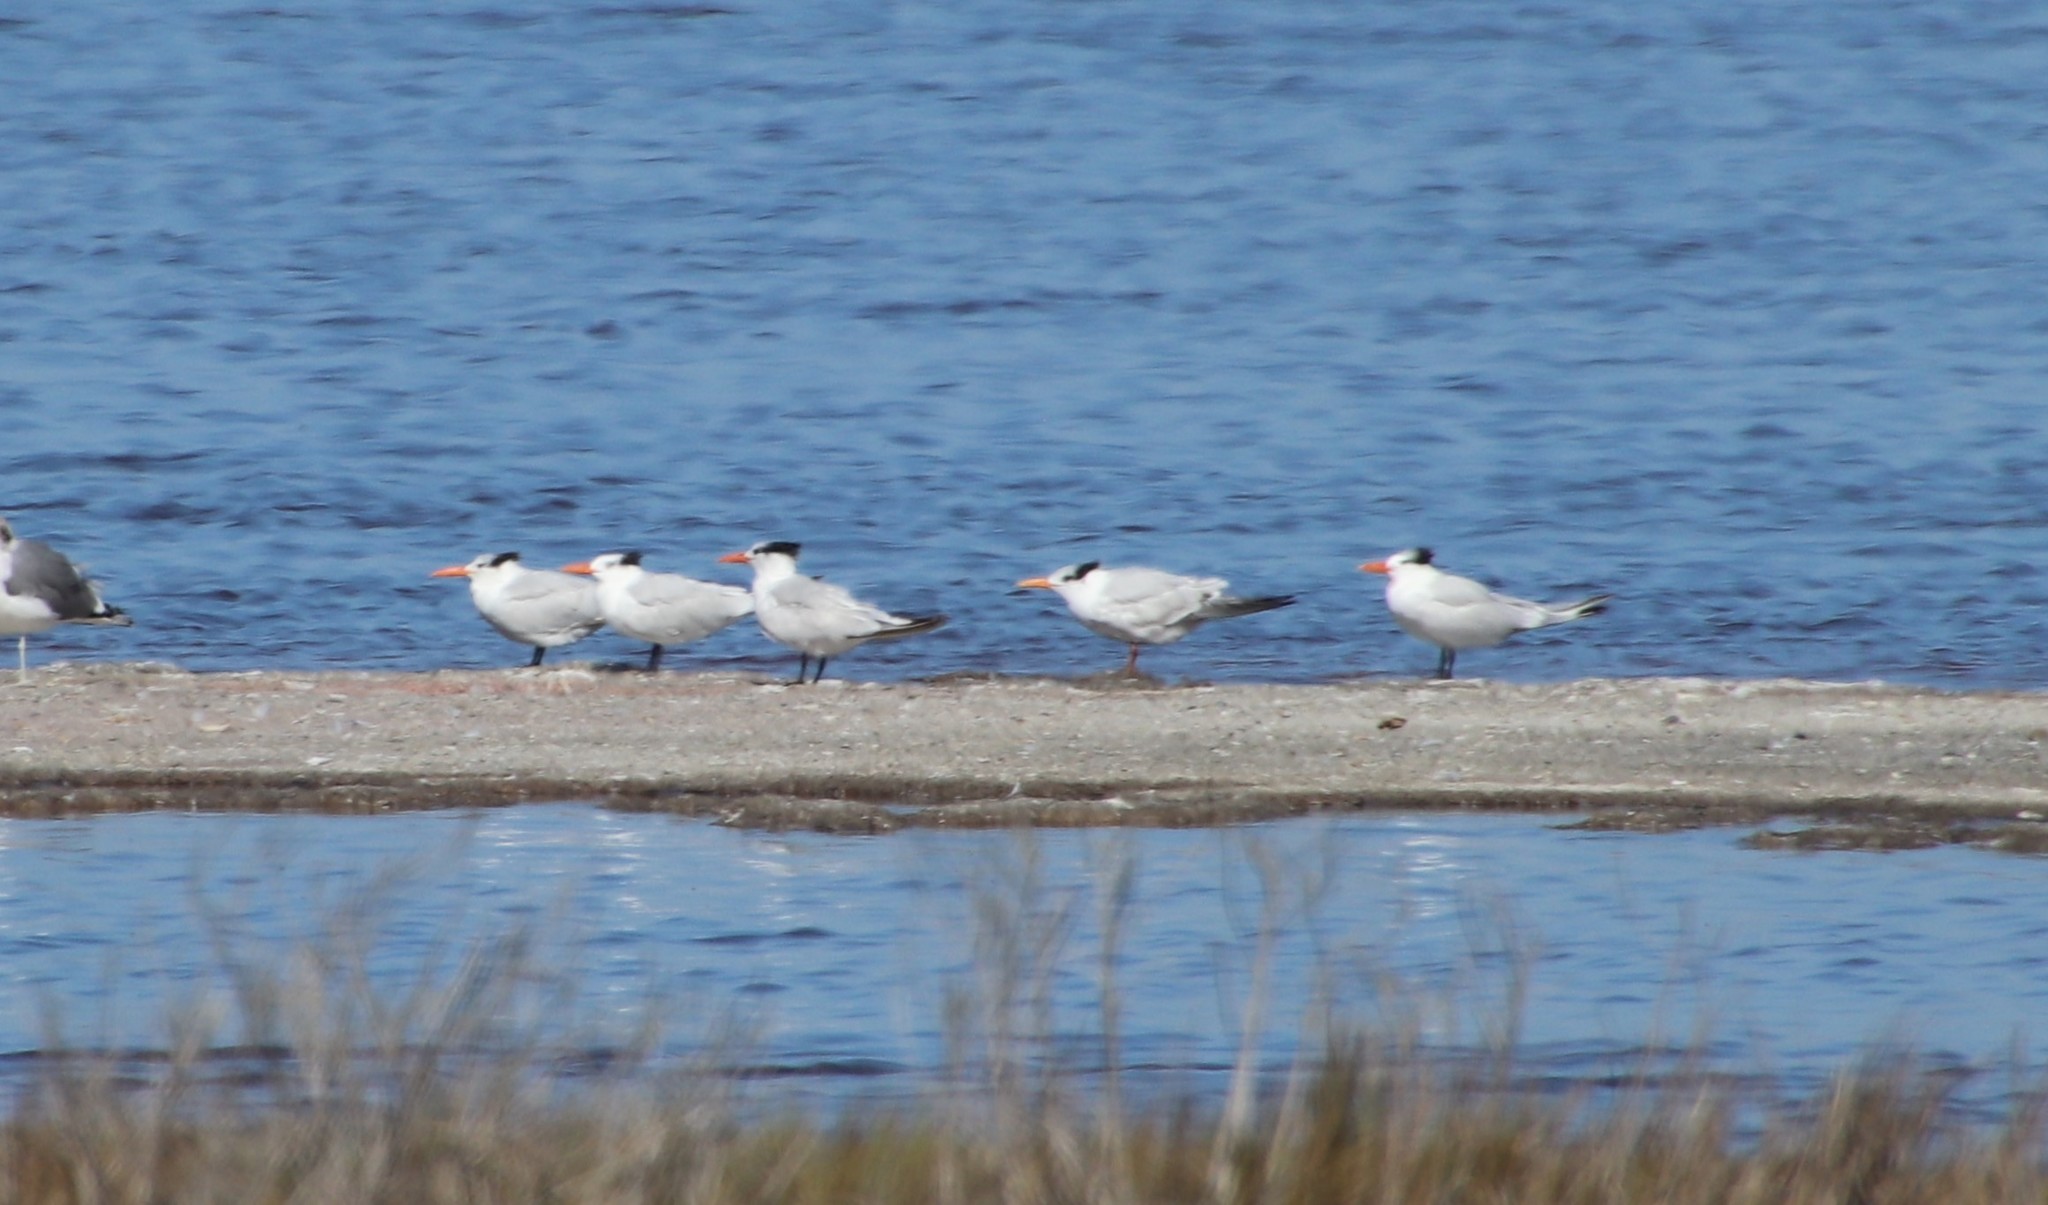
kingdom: Animalia
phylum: Chordata
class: Aves
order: Charadriiformes
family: Laridae
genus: Thalasseus
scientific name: Thalasseus maximus
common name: Royal tern
